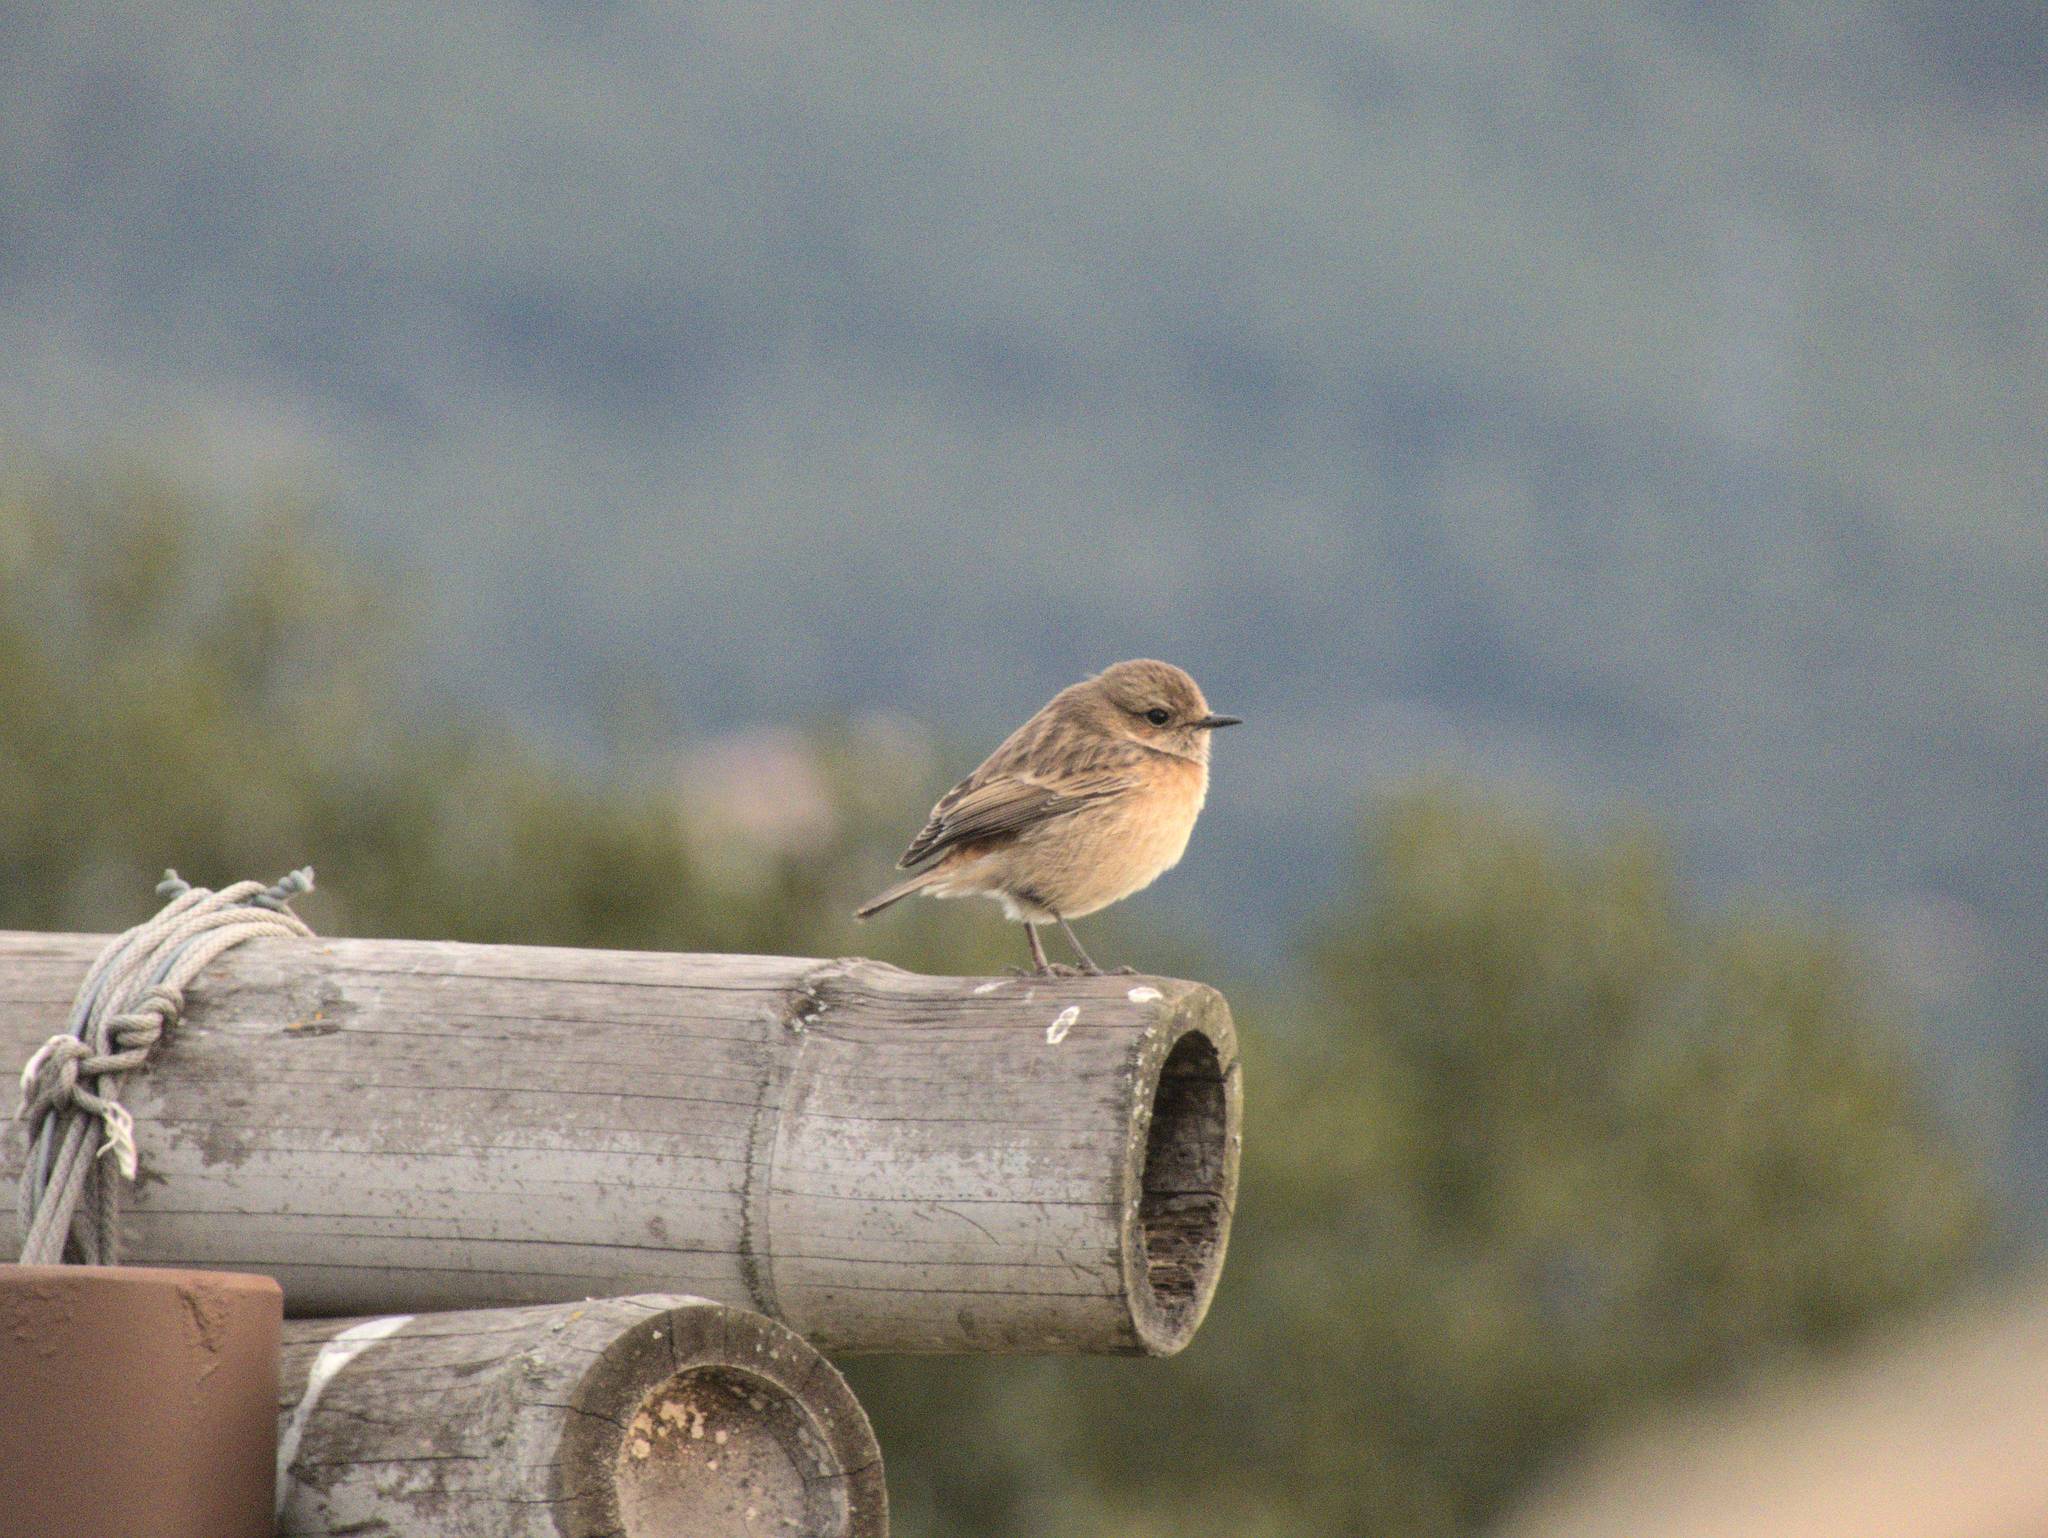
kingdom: Animalia
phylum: Chordata
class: Aves
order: Passeriformes
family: Muscicapidae
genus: Saxicola
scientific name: Saxicola rubicola
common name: European stonechat
